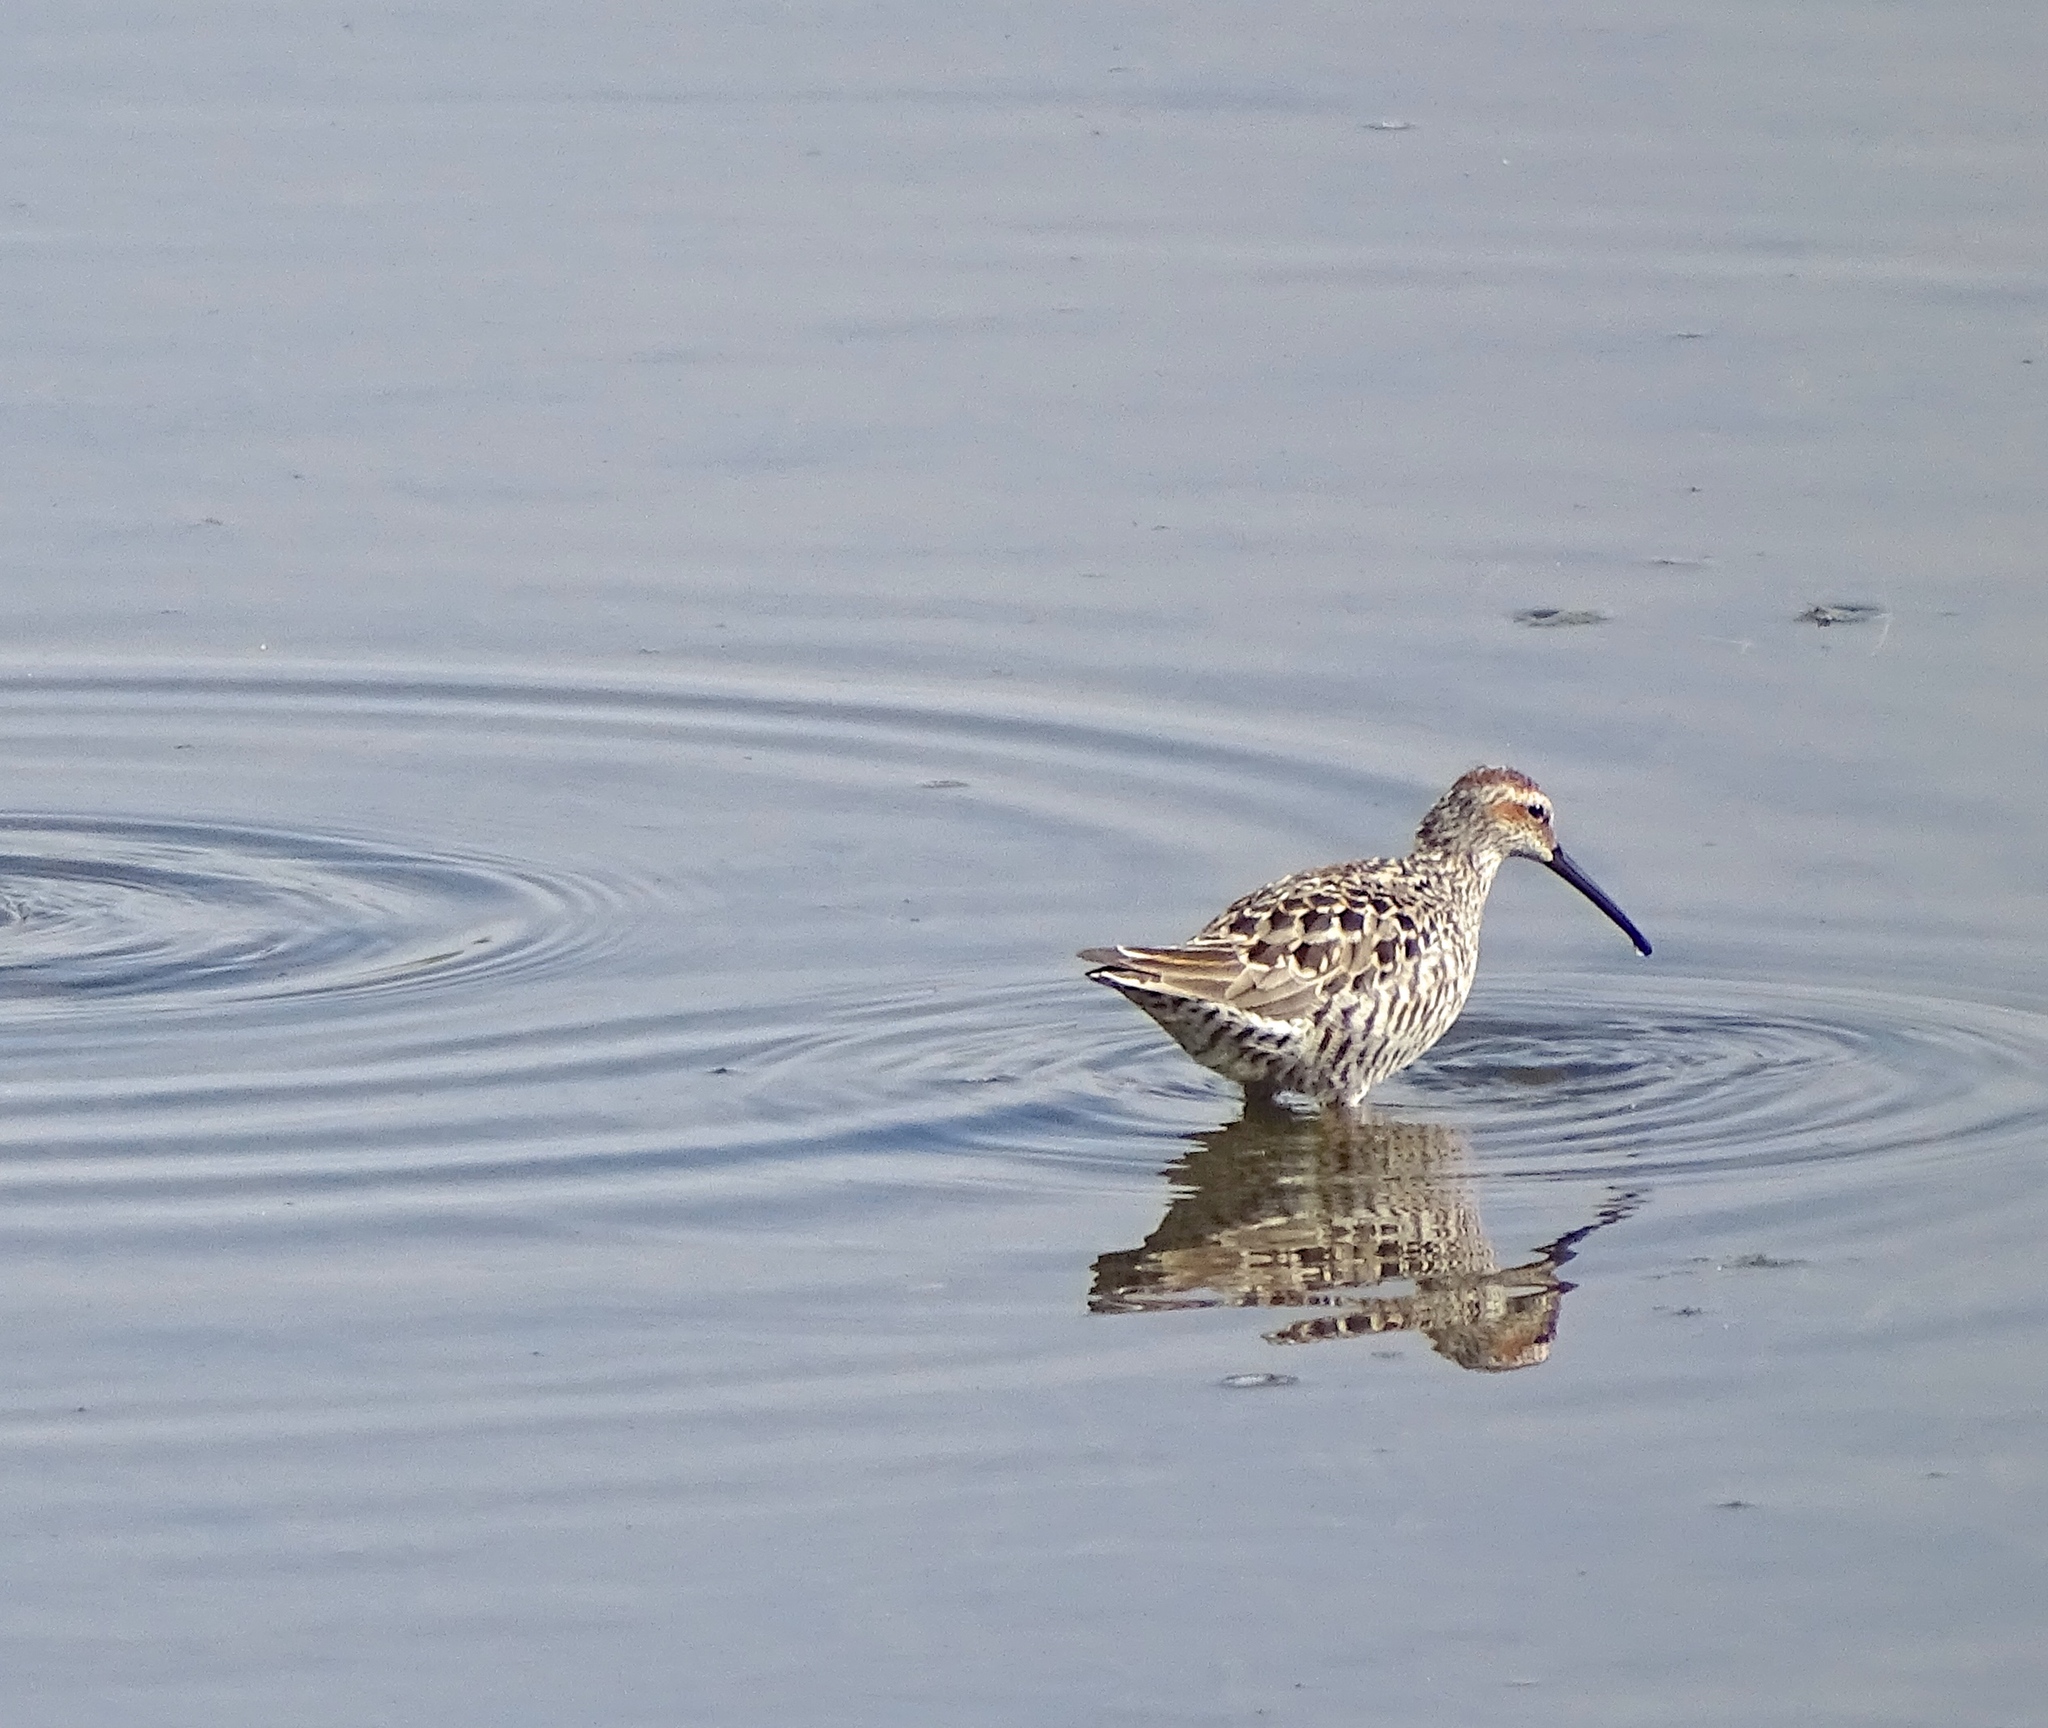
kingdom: Animalia
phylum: Chordata
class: Aves
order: Charadriiformes
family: Scolopacidae
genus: Calidris
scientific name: Calidris himantopus
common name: Stilt sandpiper
